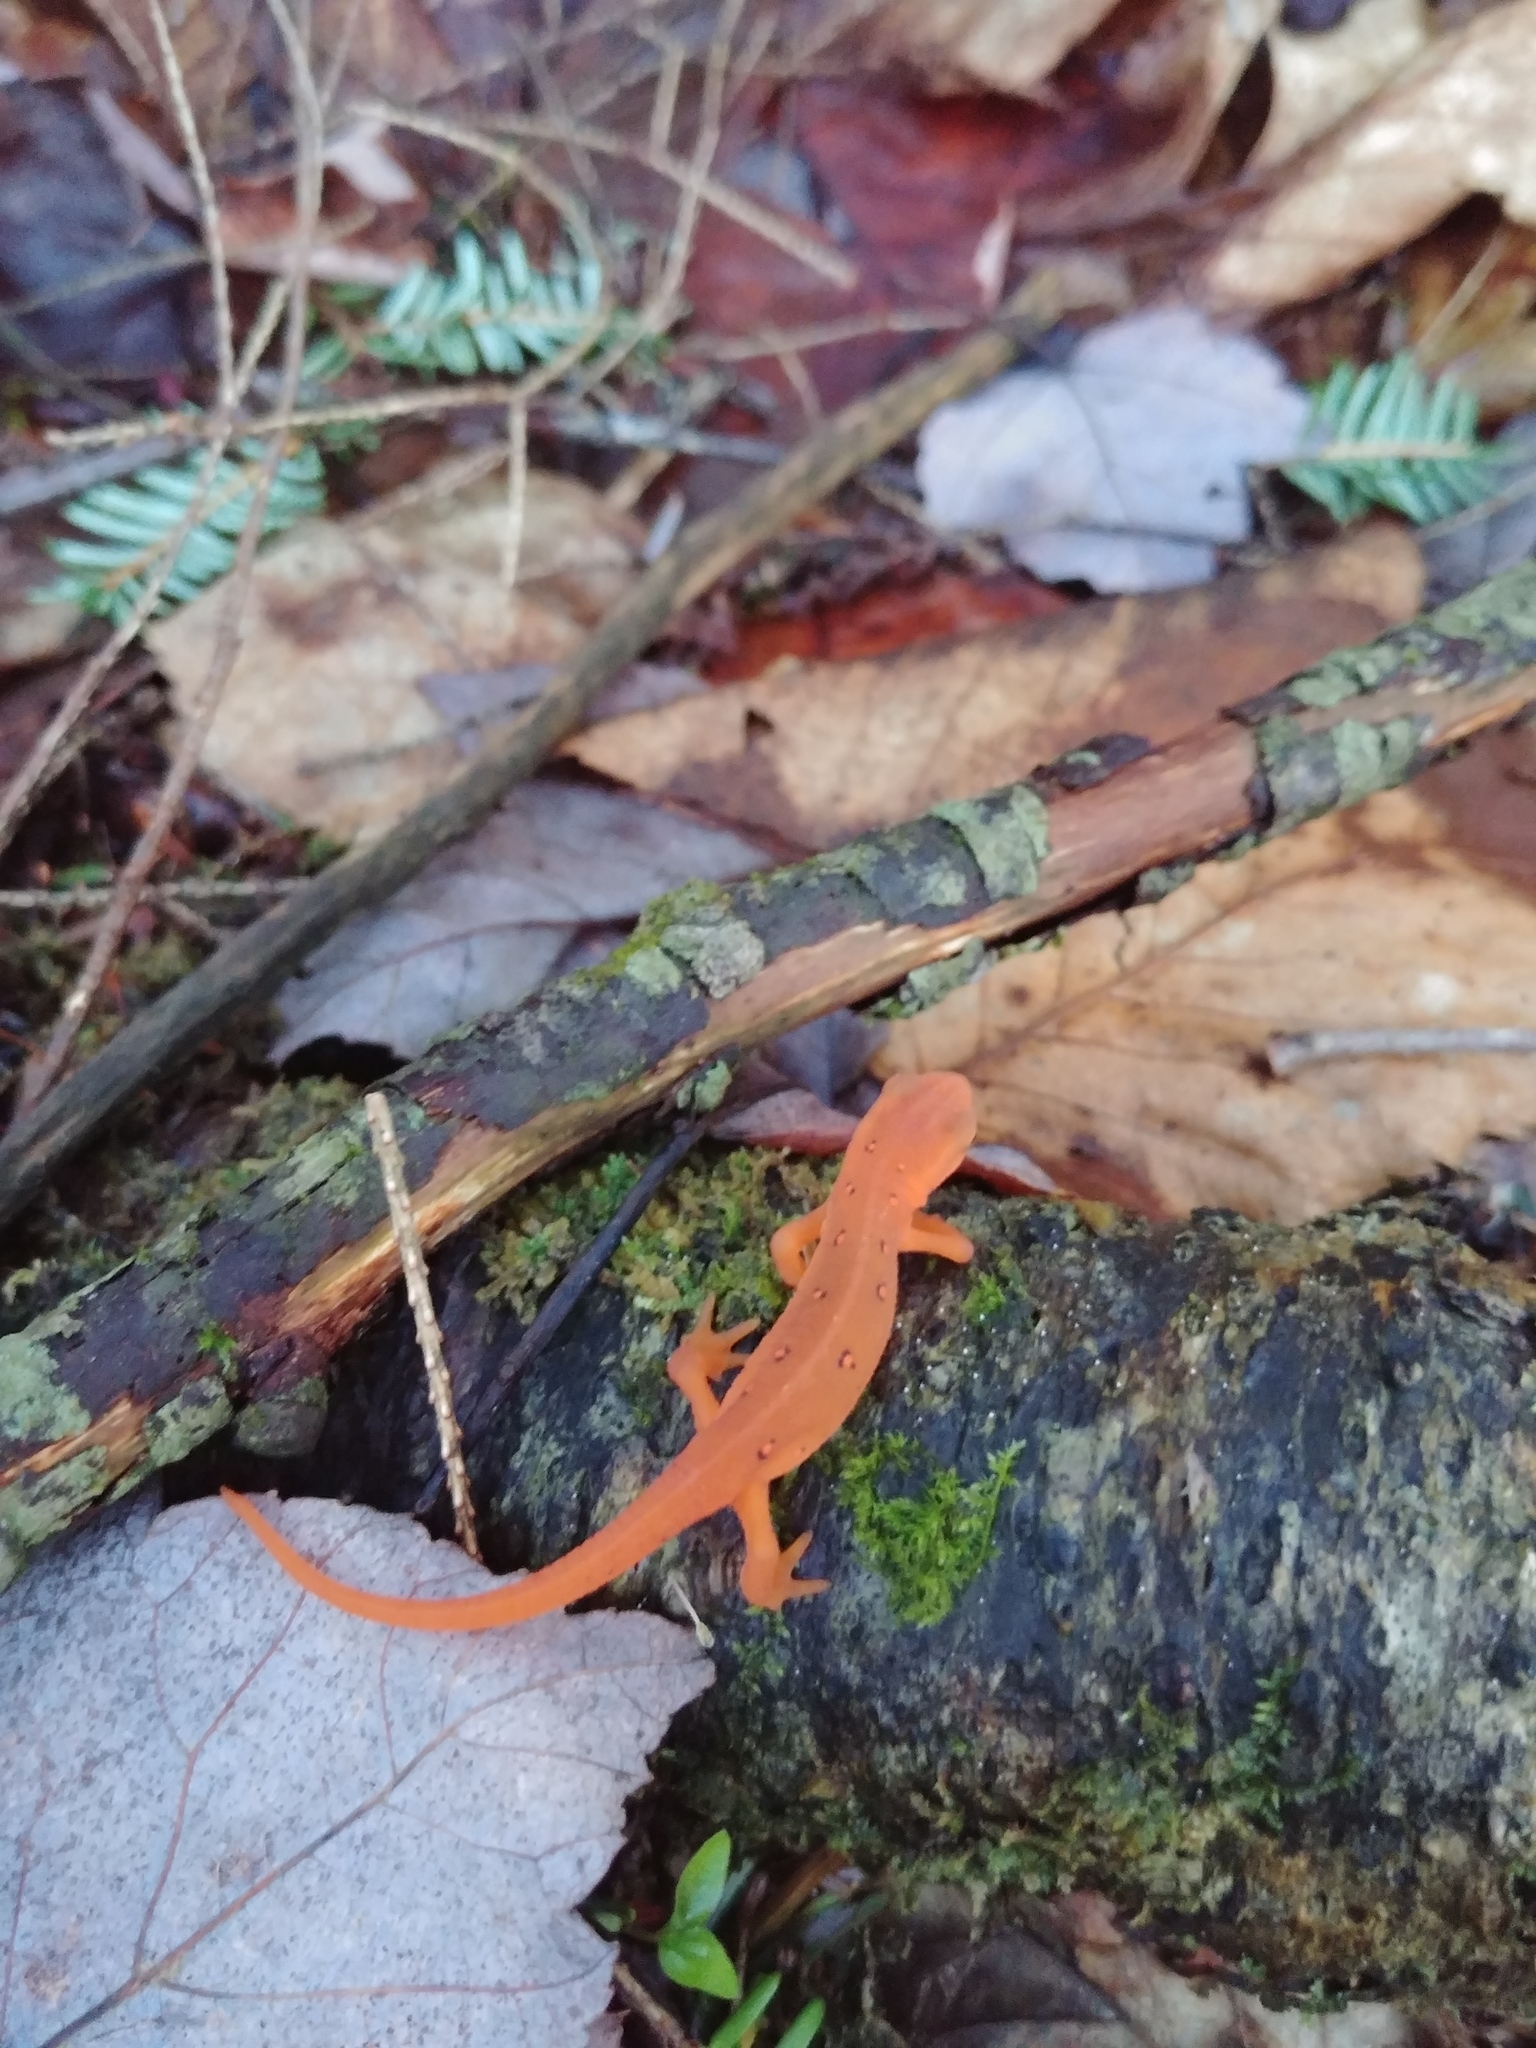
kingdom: Animalia
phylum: Chordata
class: Amphibia
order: Caudata
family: Salamandridae
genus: Notophthalmus
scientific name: Notophthalmus viridescens
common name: Eastern newt
